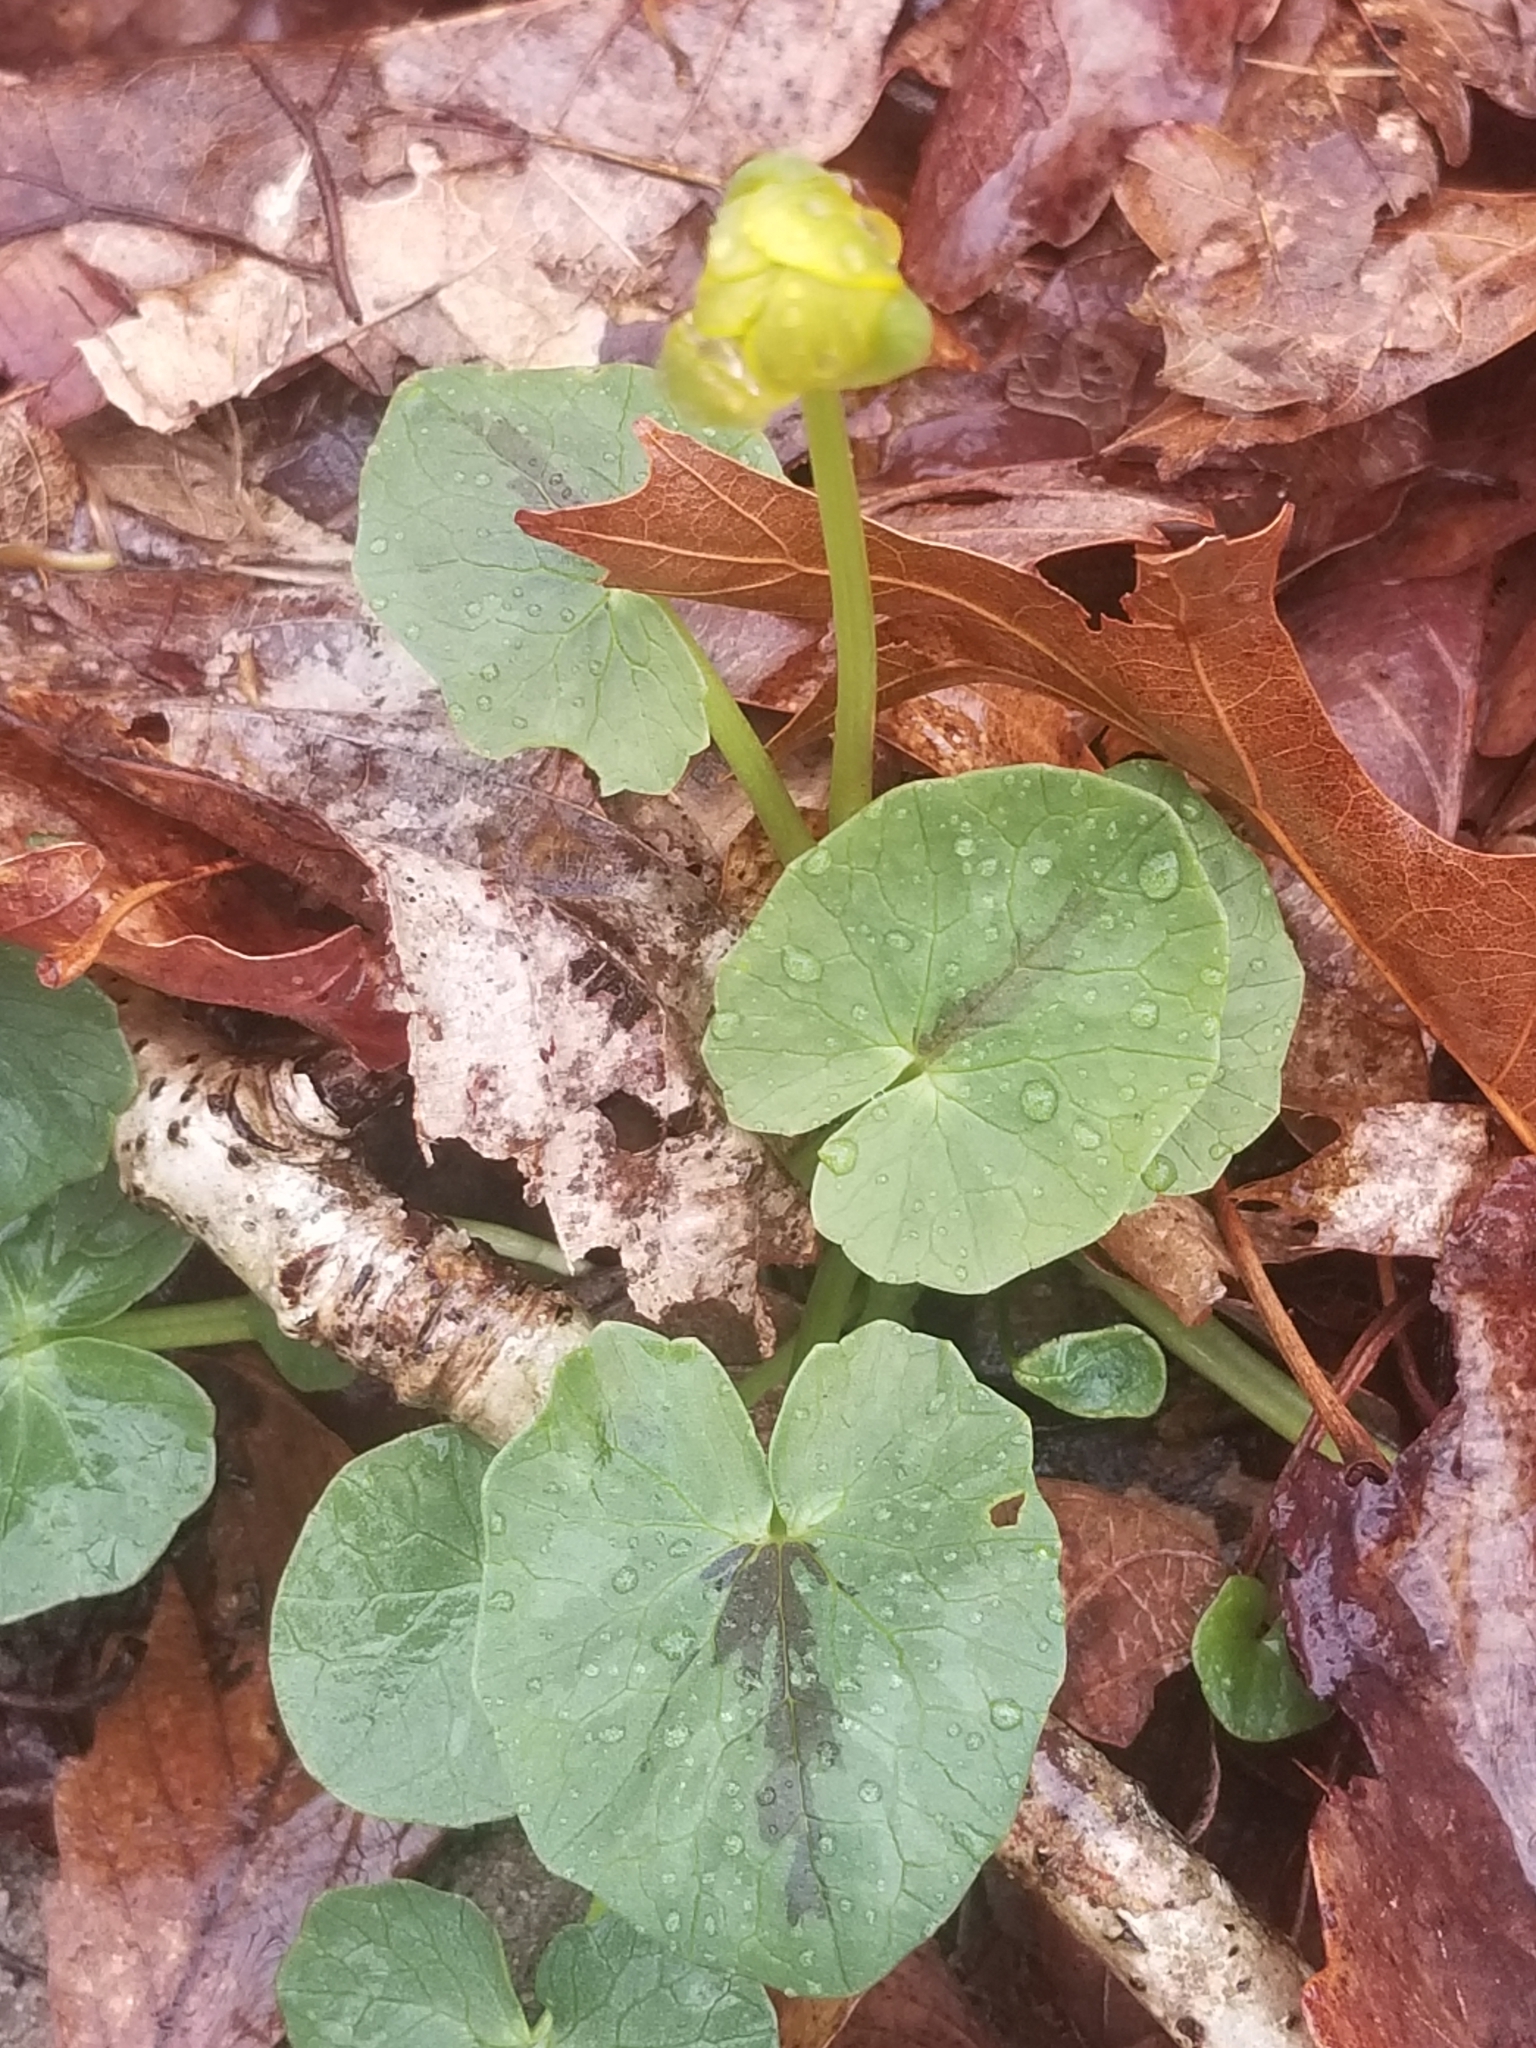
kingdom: Plantae
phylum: Tracheophyta
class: Magnoliopsida
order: Ranunculales
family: Ranunculaceae
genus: Ficaria
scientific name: Ficaria verna
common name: Lesser celandine
